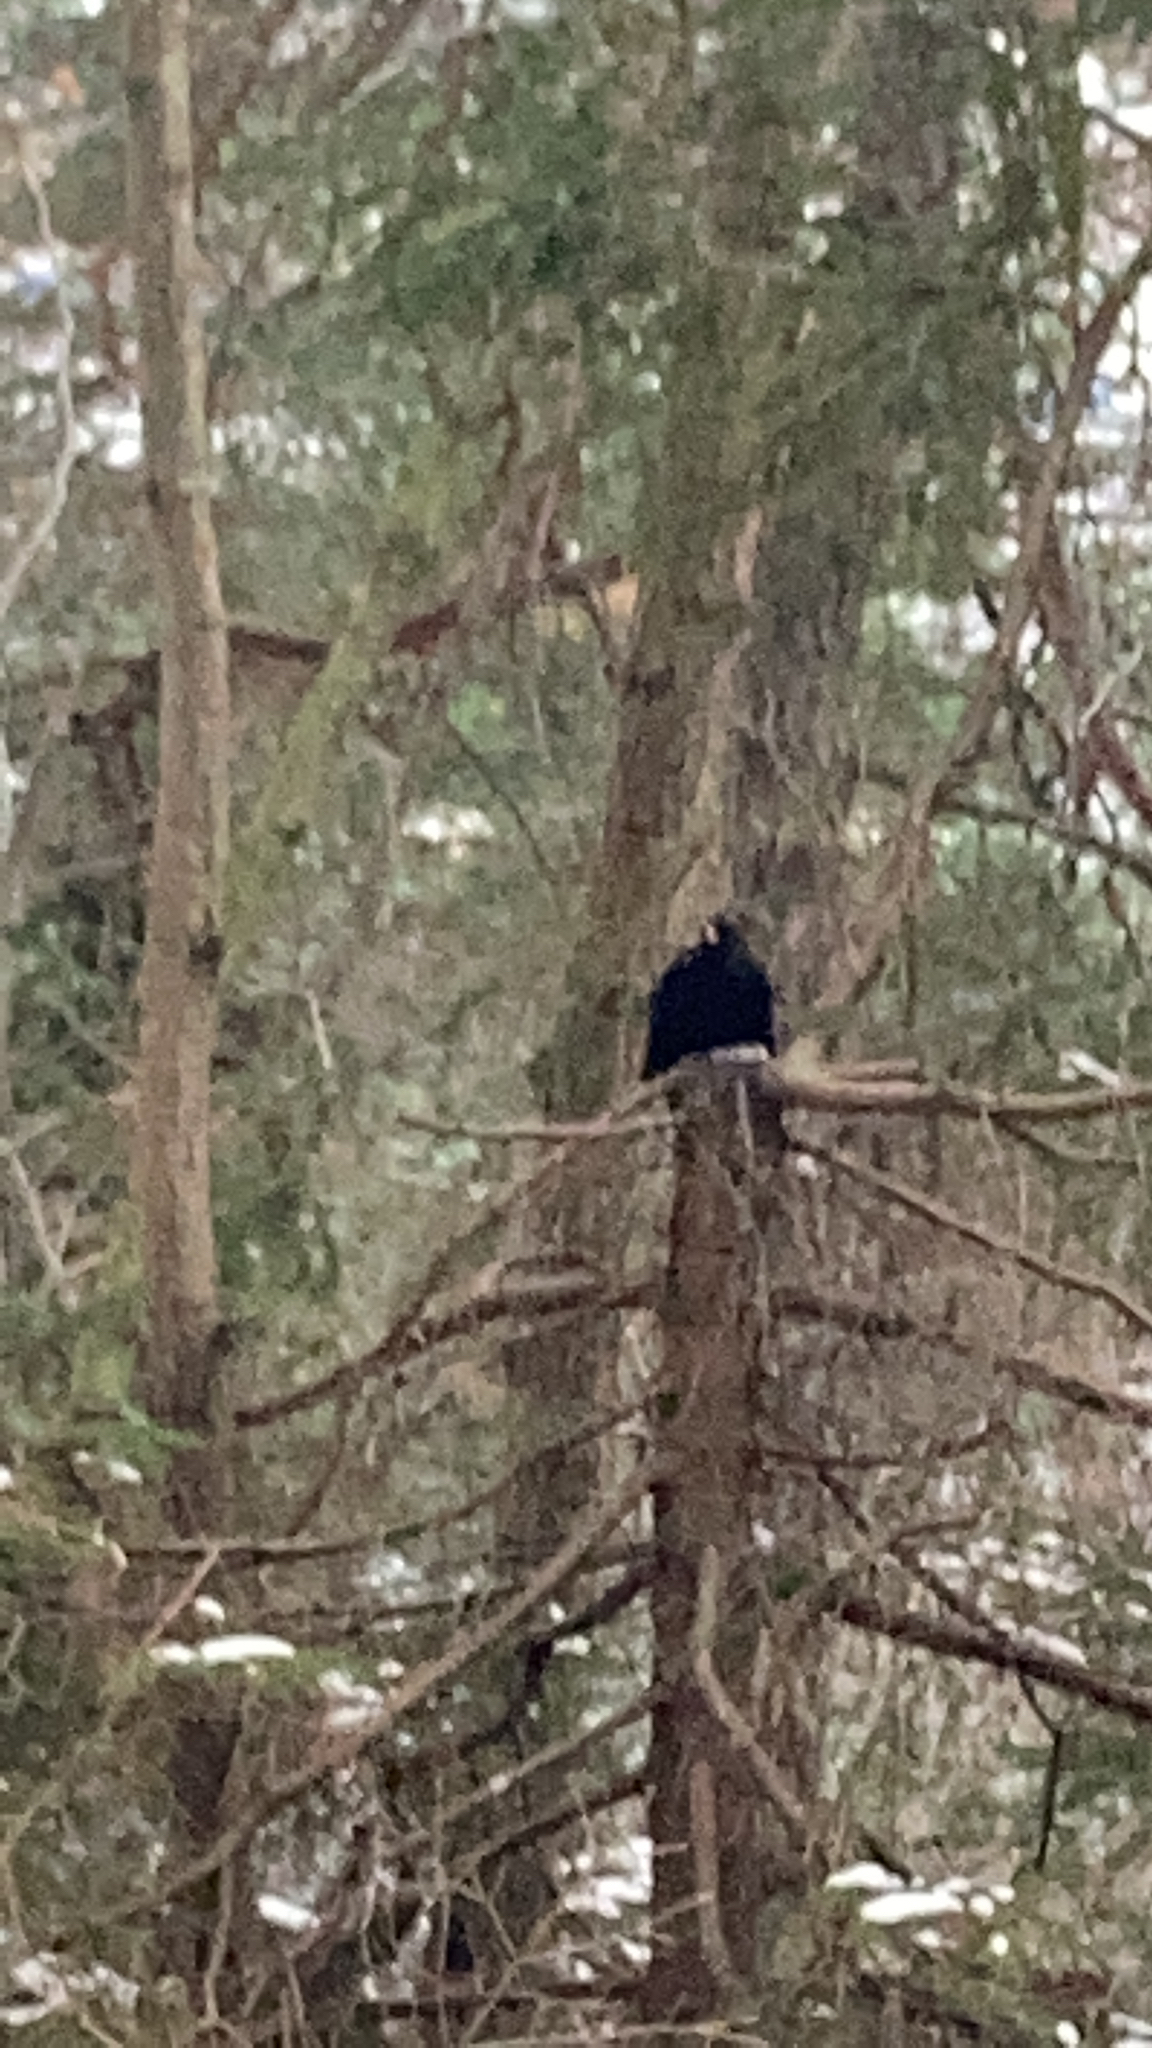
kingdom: Animalia
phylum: Chordata
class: Aves
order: Passeriformes
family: Turdidae
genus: Turdus
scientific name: Turdus merula
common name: Common blackbird
